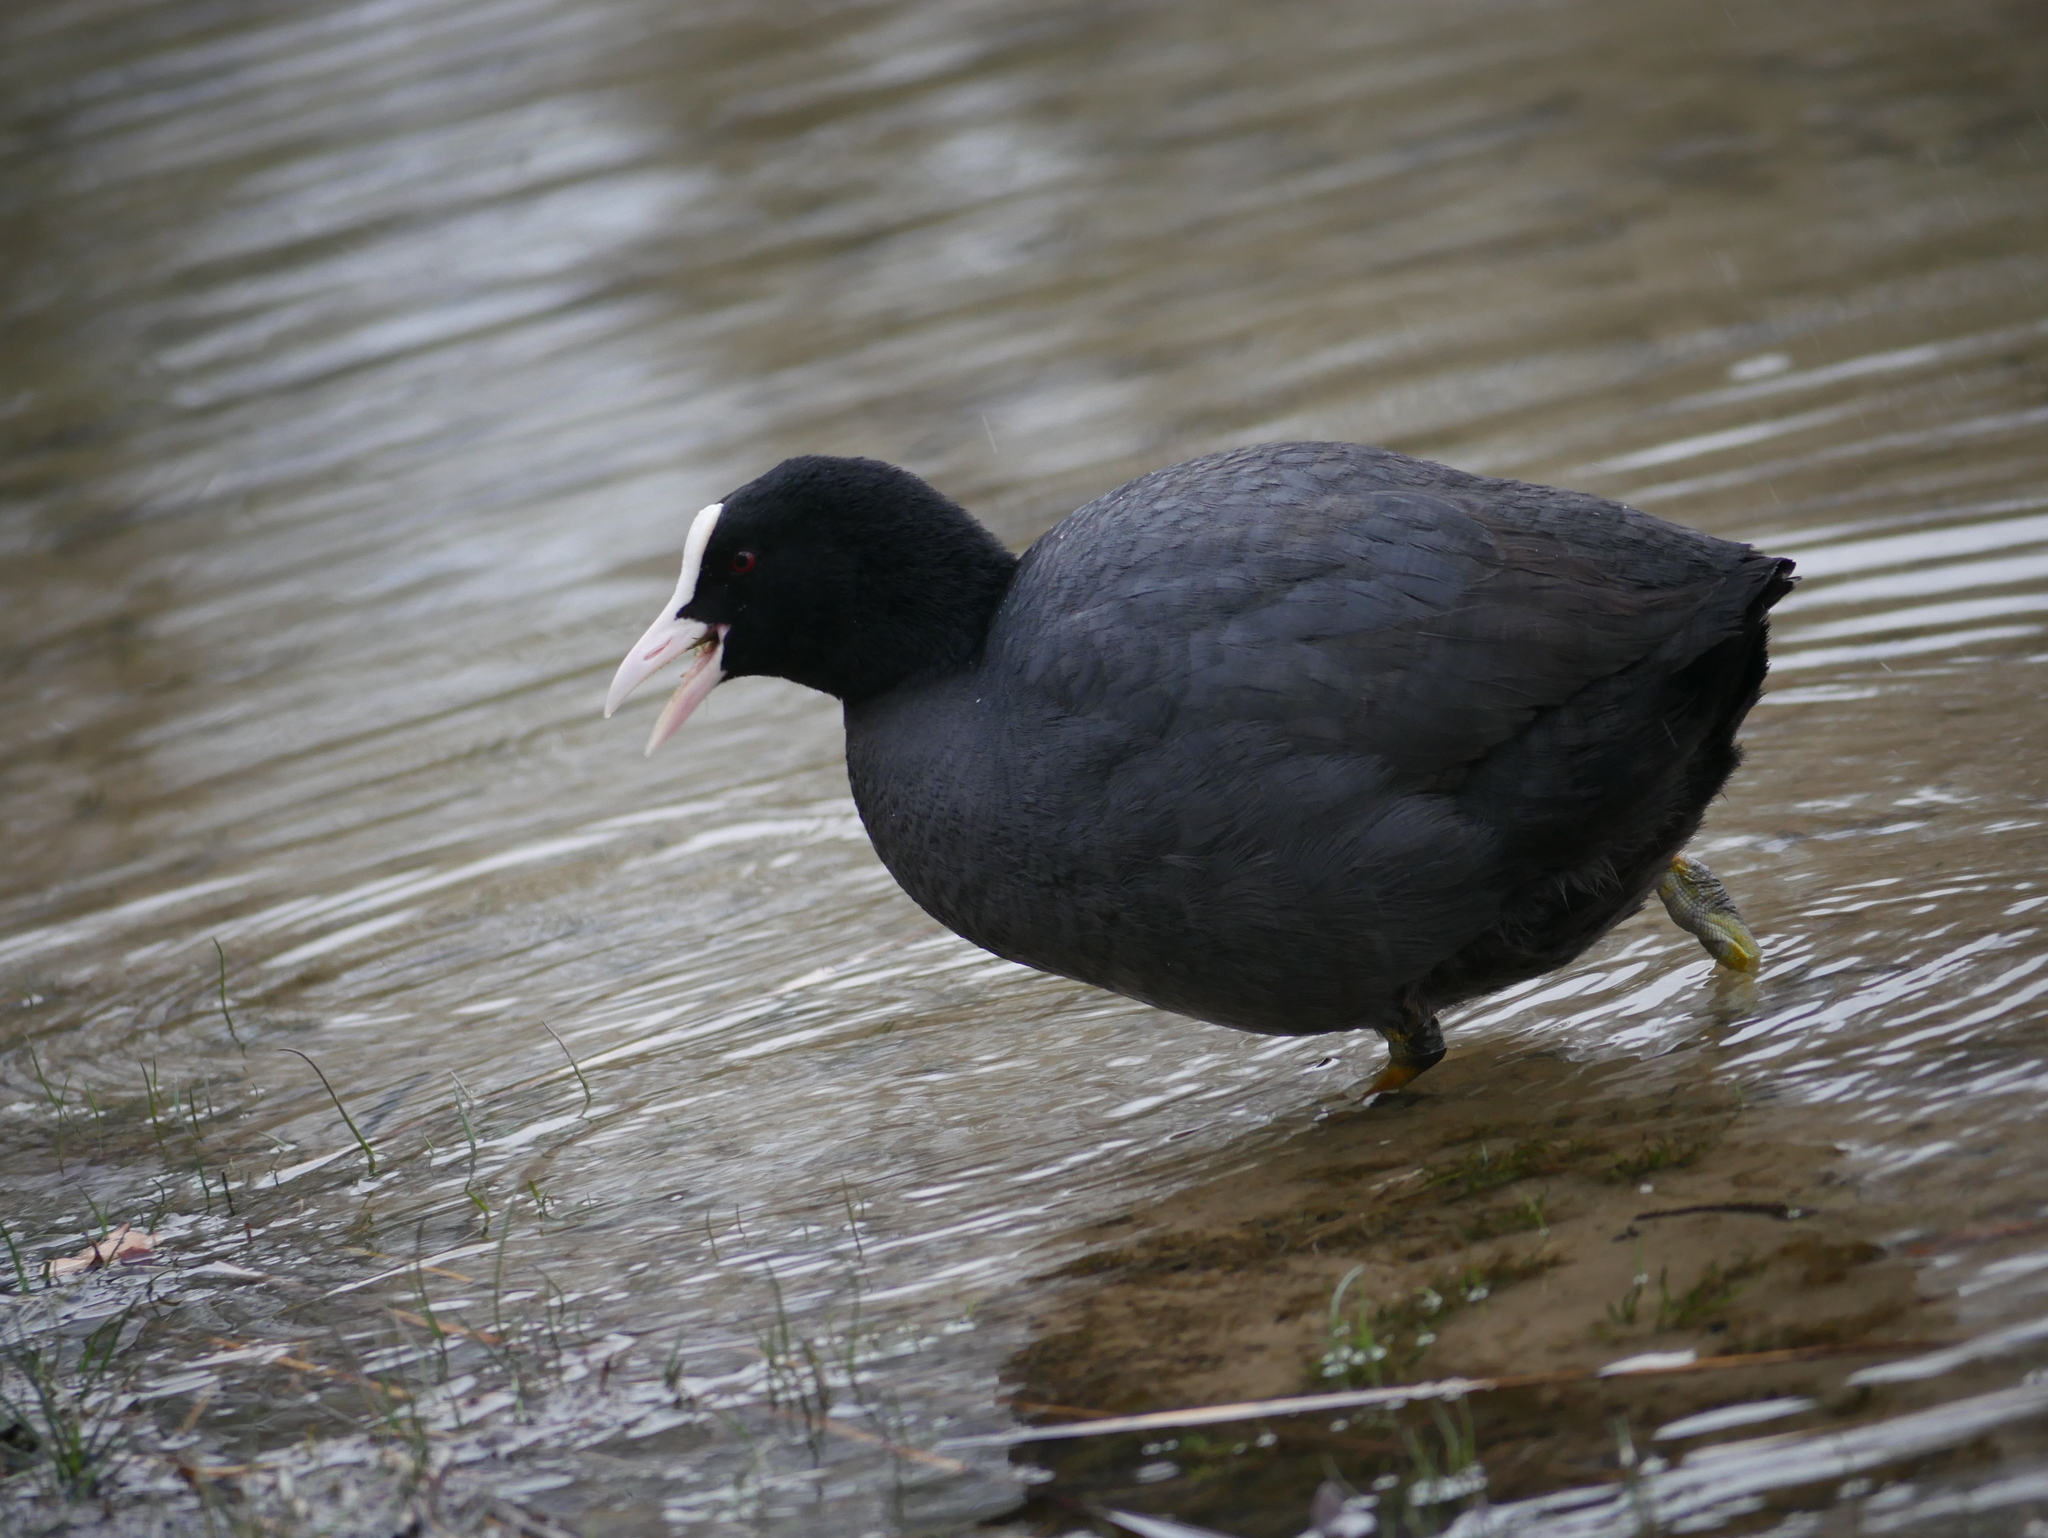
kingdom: Animalia
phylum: Chordata
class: Aves
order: Gruiformes
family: Rallidae
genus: Fulica
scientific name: Fulica atra
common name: Eurasian coot
